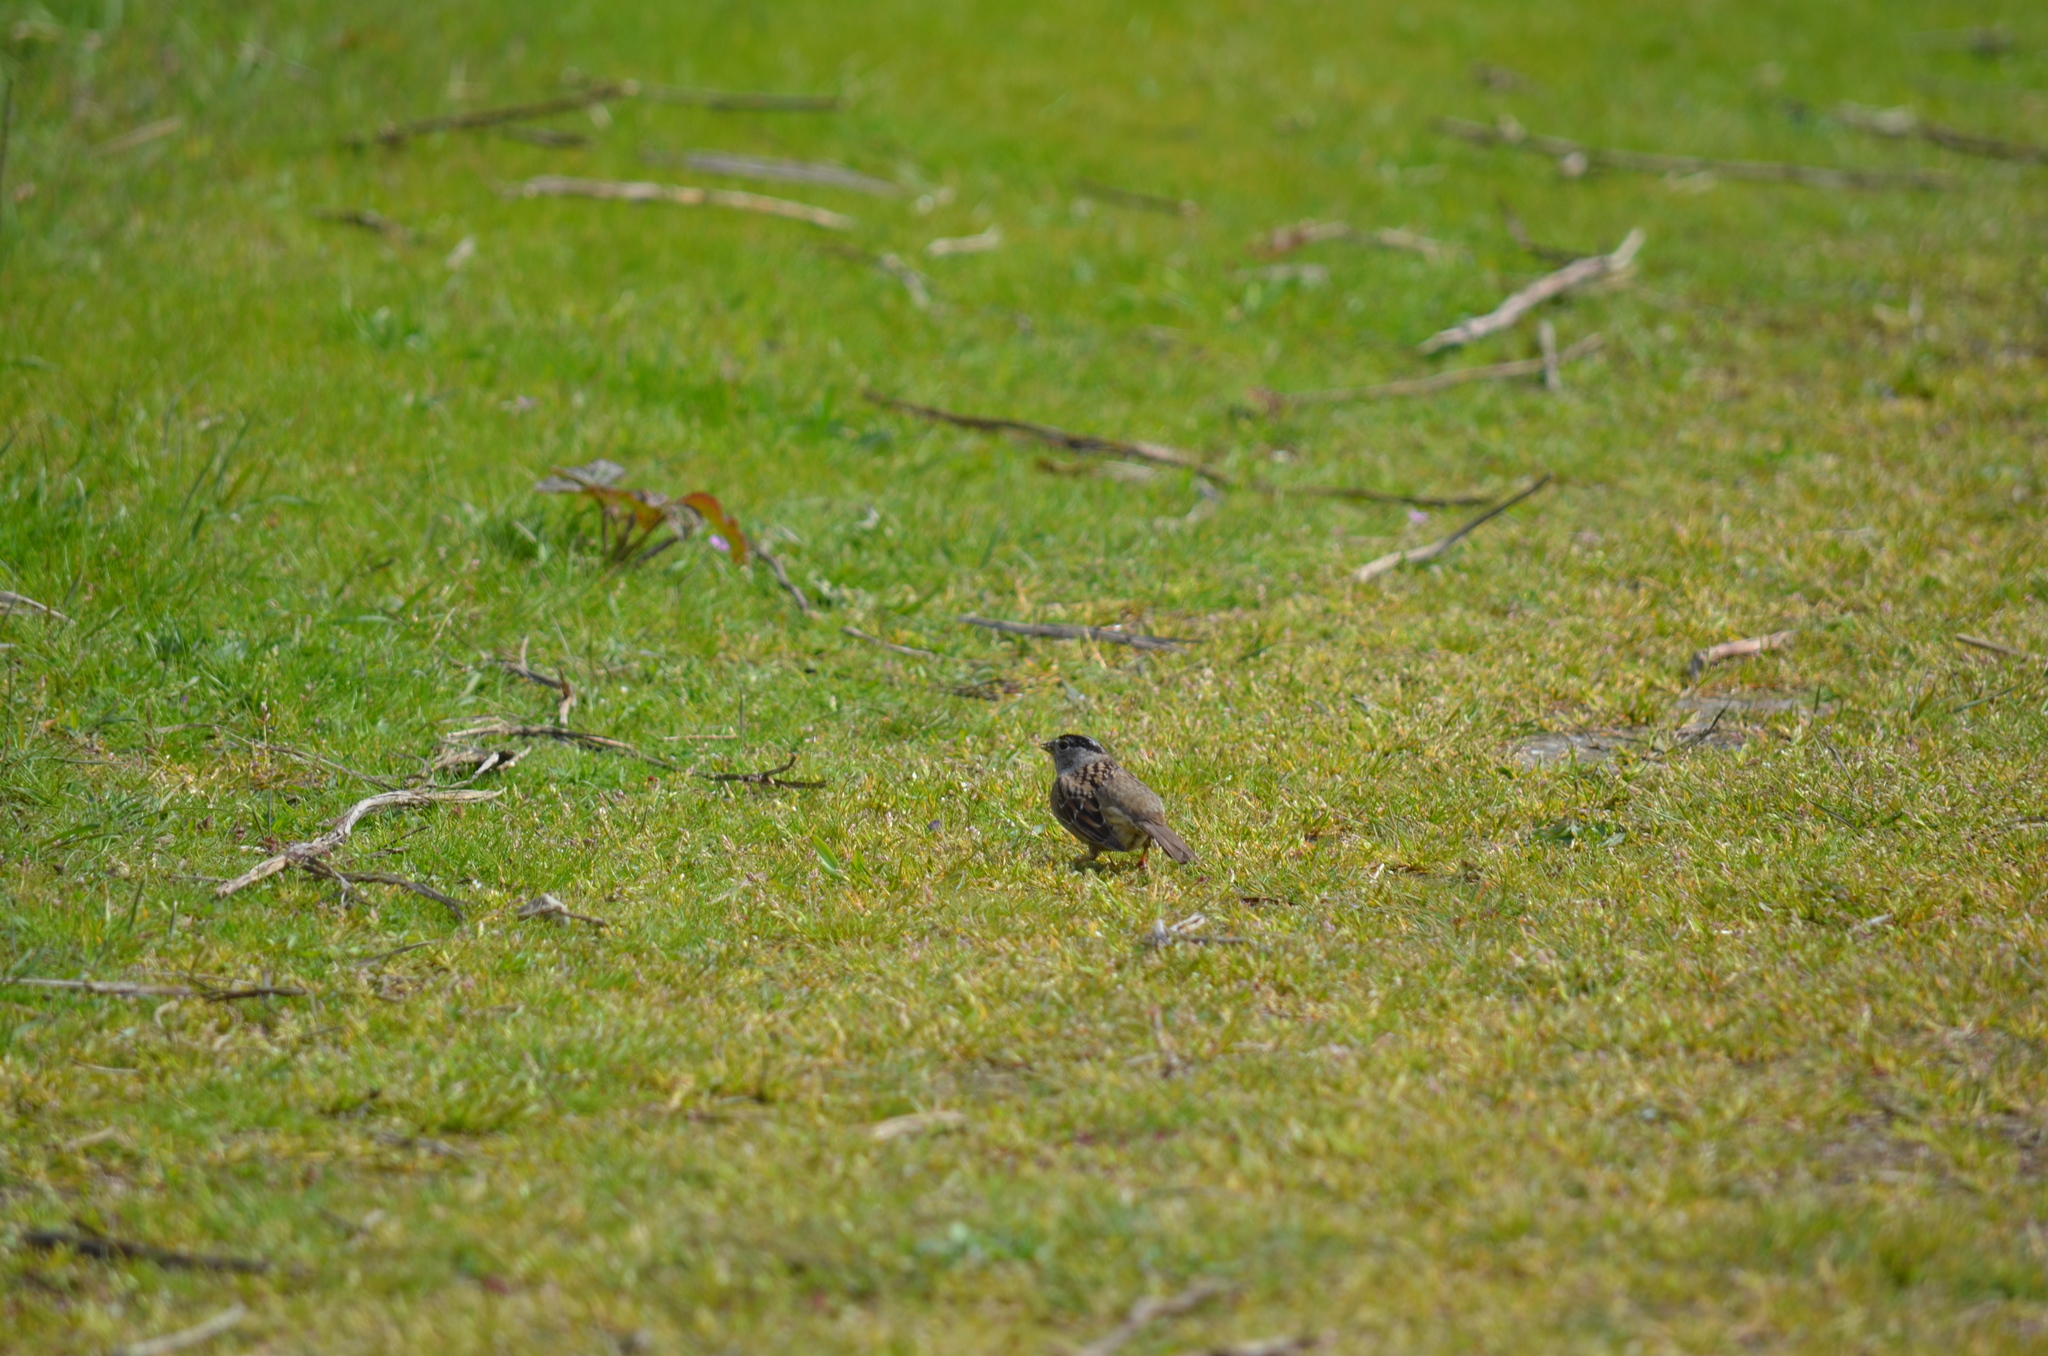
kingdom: Animalia
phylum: Chordata
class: Aves
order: Passeriformes
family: Passerellidae
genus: Zonotrichia
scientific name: Zonotrichia atricapilla
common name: Golden-crowned sparrow
